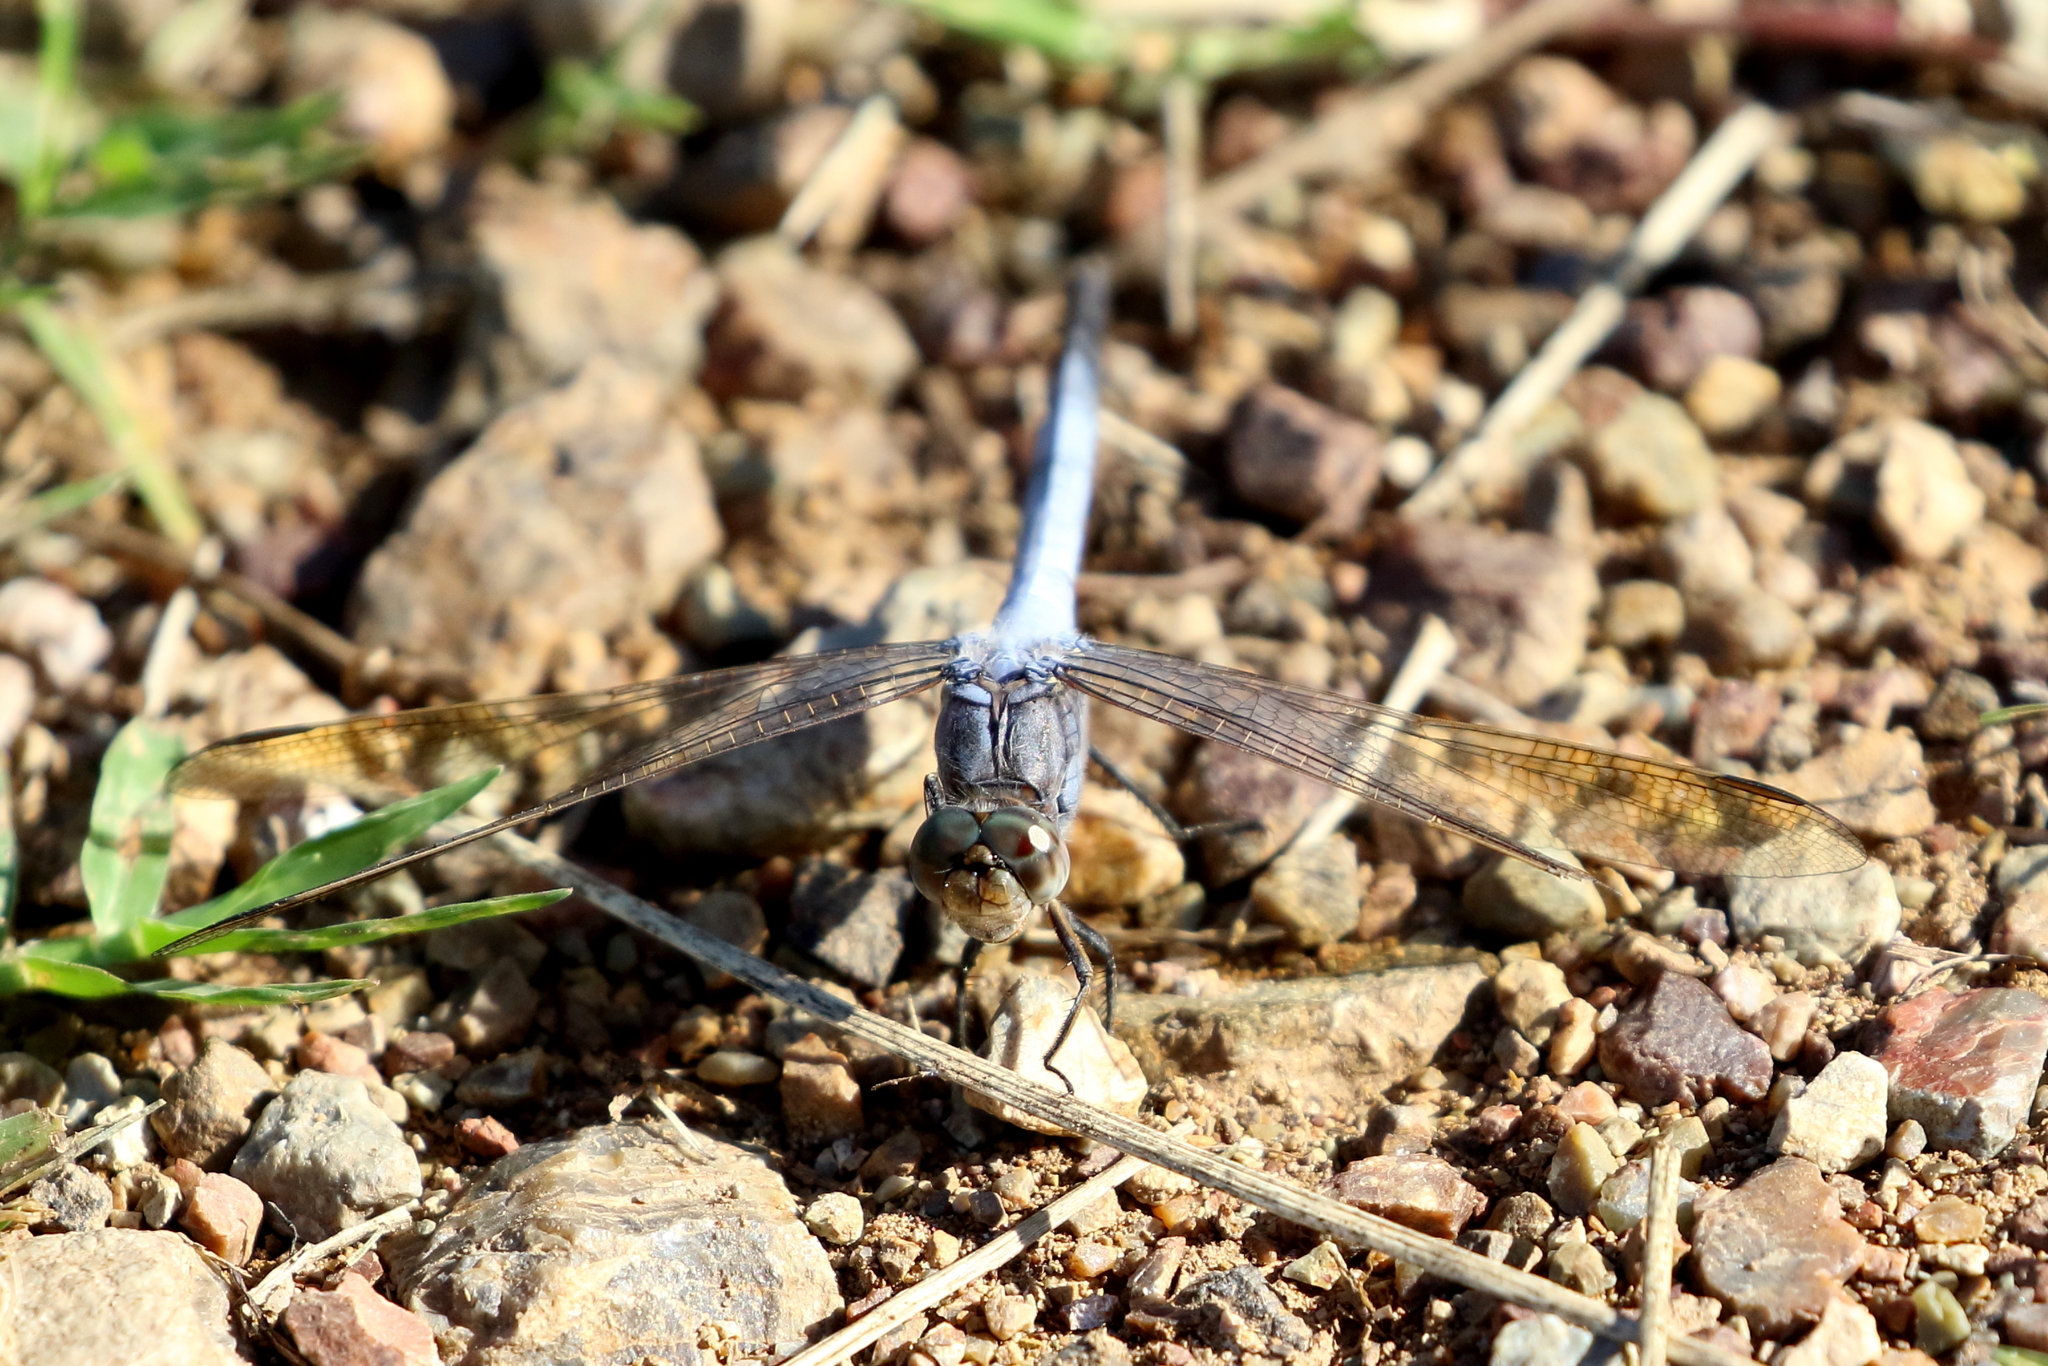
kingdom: Animalia
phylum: Arthropoda
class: Insecta
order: Odonata
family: Libellulidae
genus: Orthetrum
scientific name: Orthetrum caledonicum
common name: Blue skimmer
